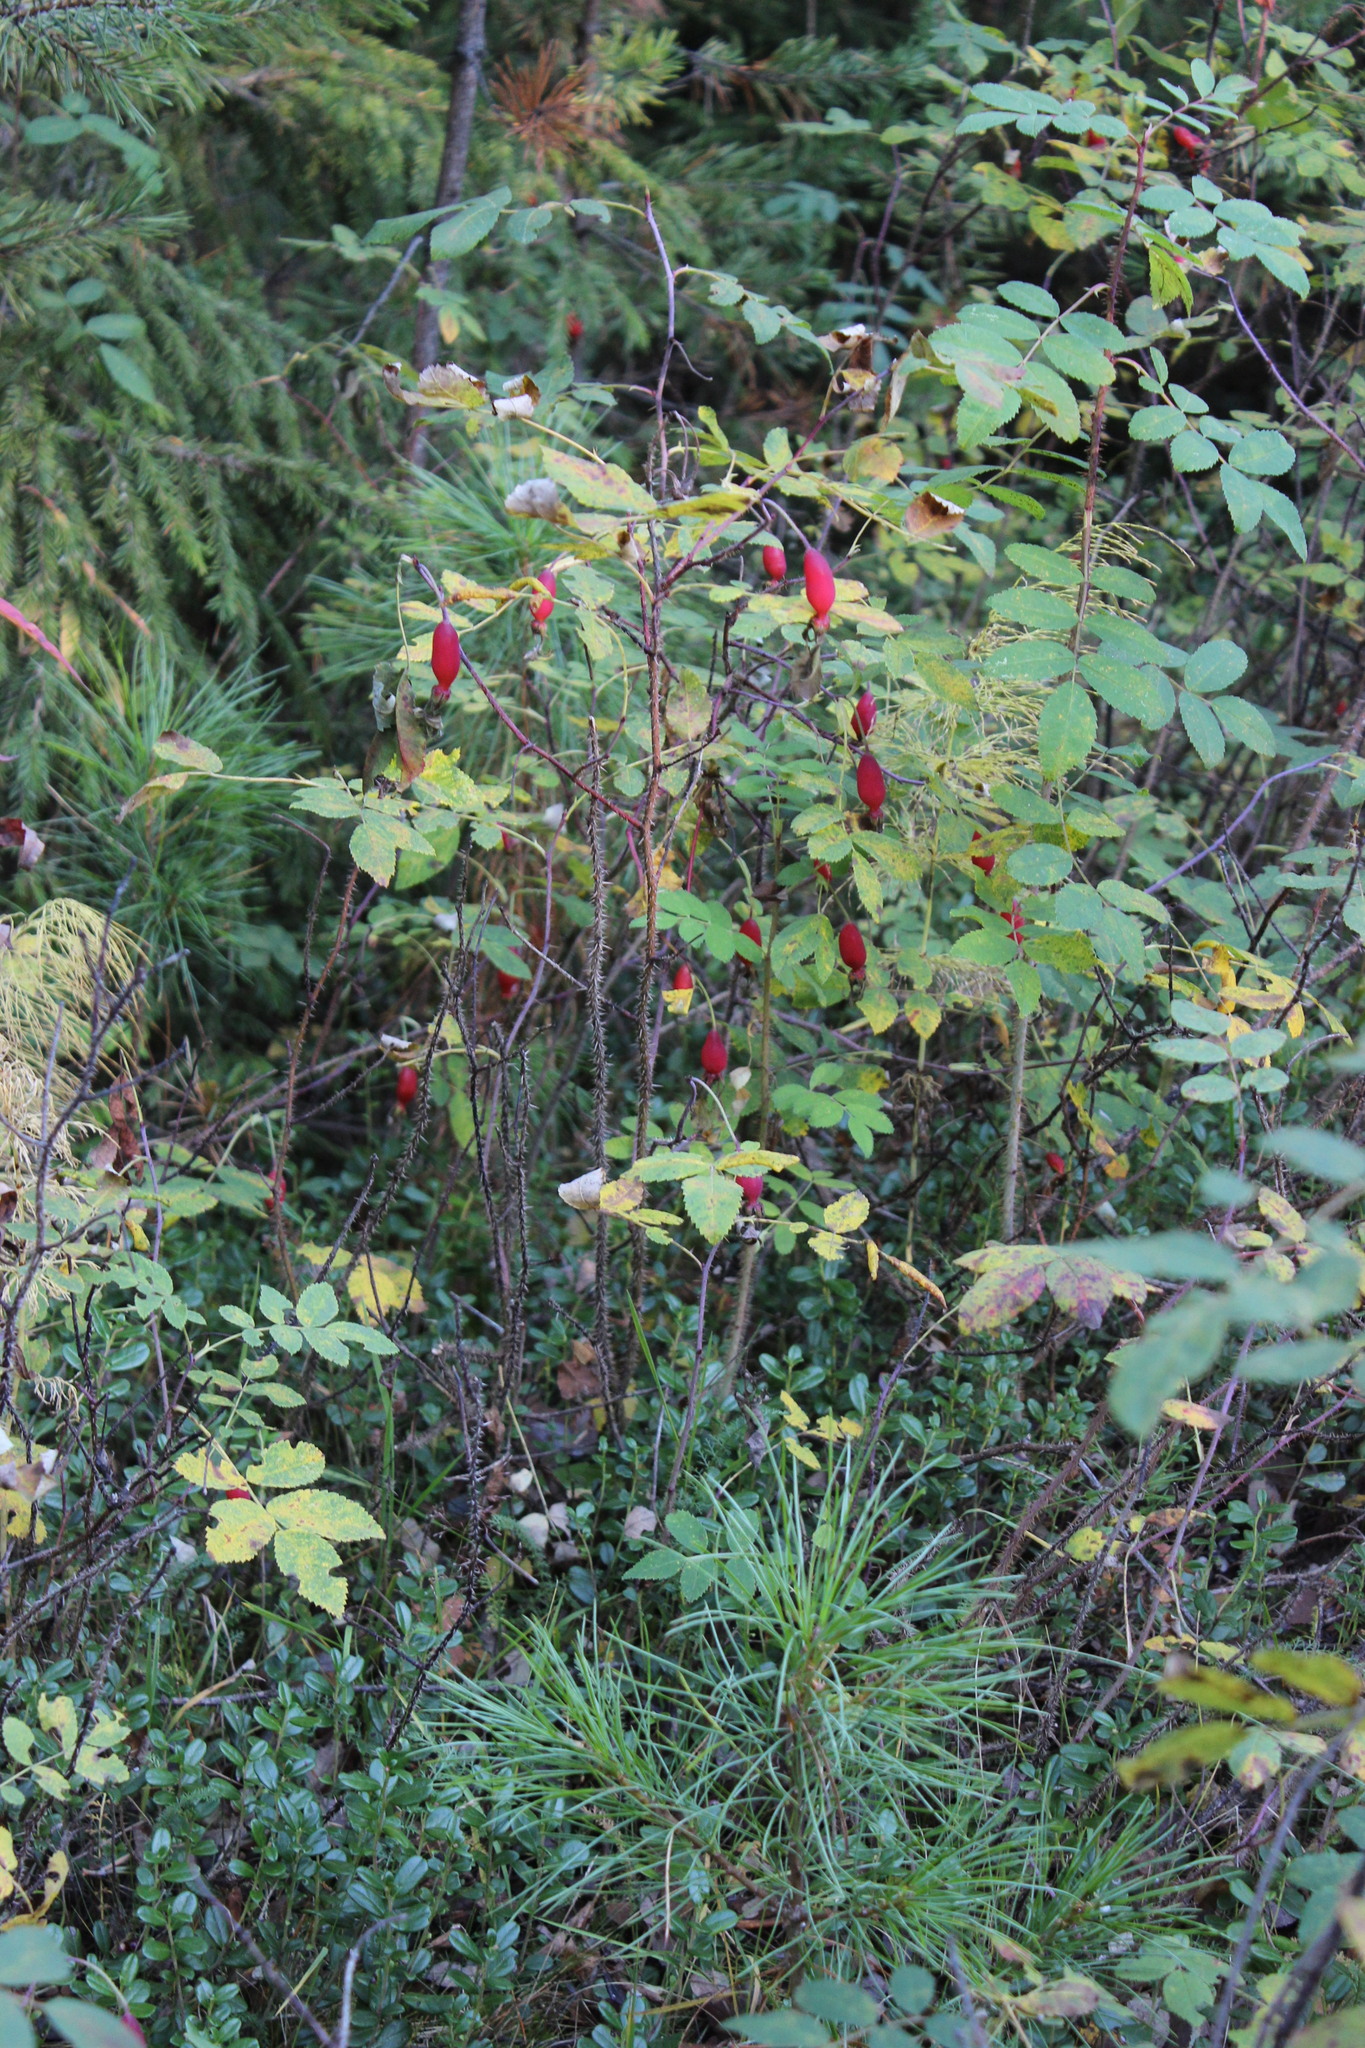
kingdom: Plantae
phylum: Tracheophyta
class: Magnoliopsida
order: Rosales
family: Rosaceae
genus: Rosa
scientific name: Rosa acicularis
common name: Prickly rose
